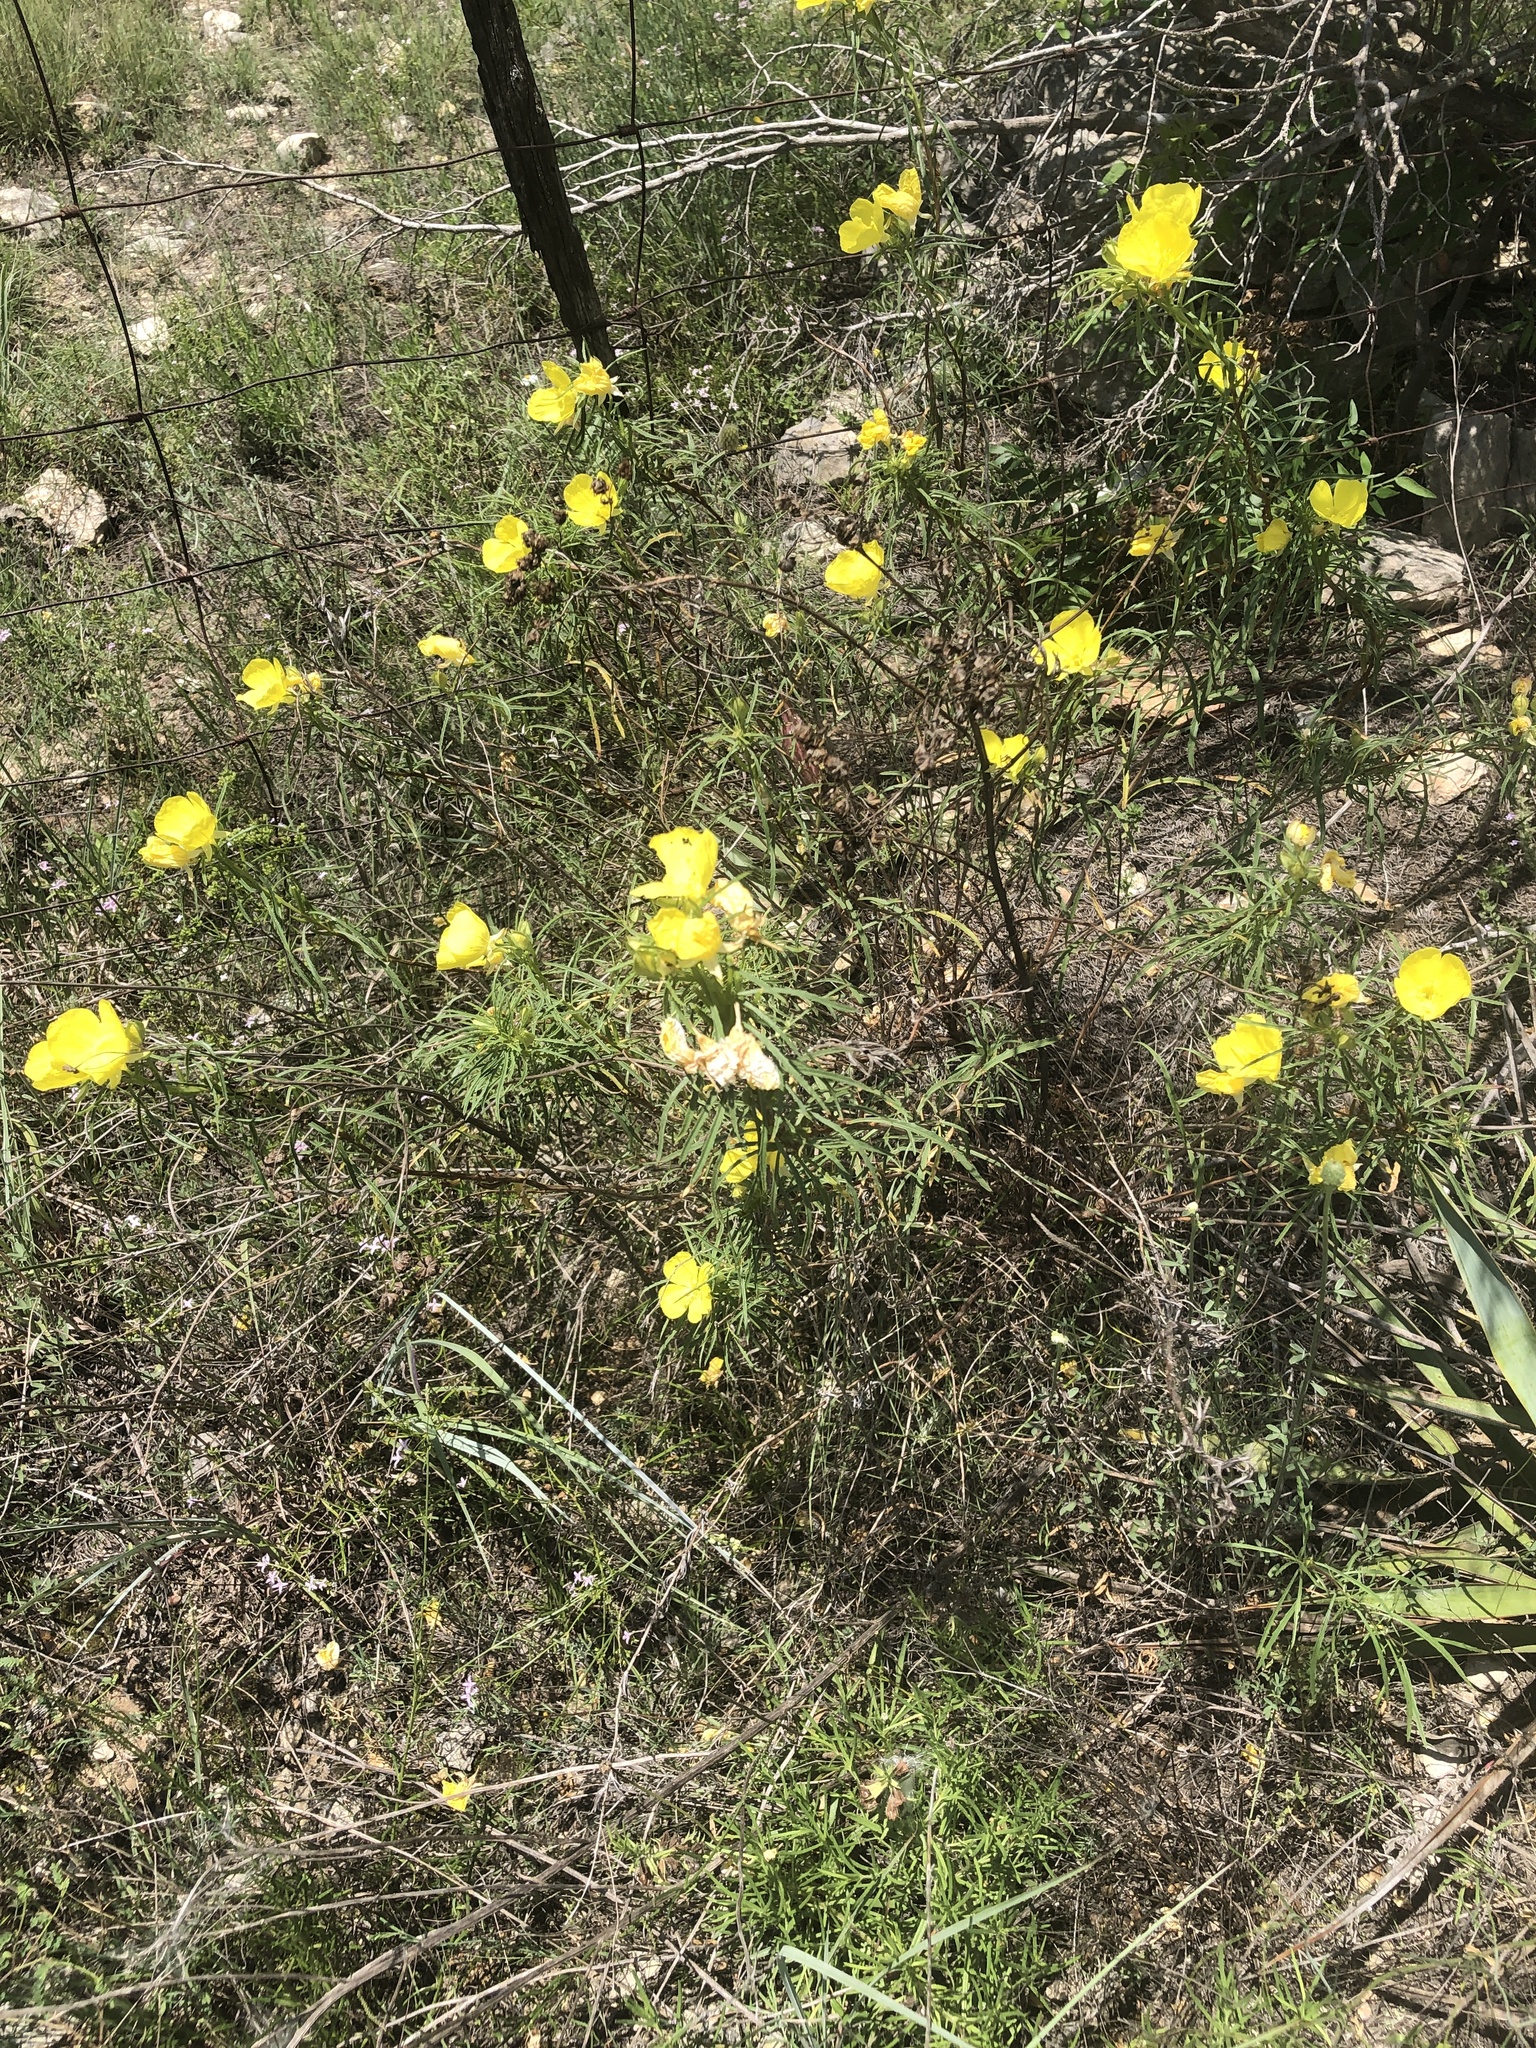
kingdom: Plantae
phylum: Tracheophyta
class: Magnoliopsida
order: Myrtales
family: Onagraceae
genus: Oenothera
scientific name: Oenothera
